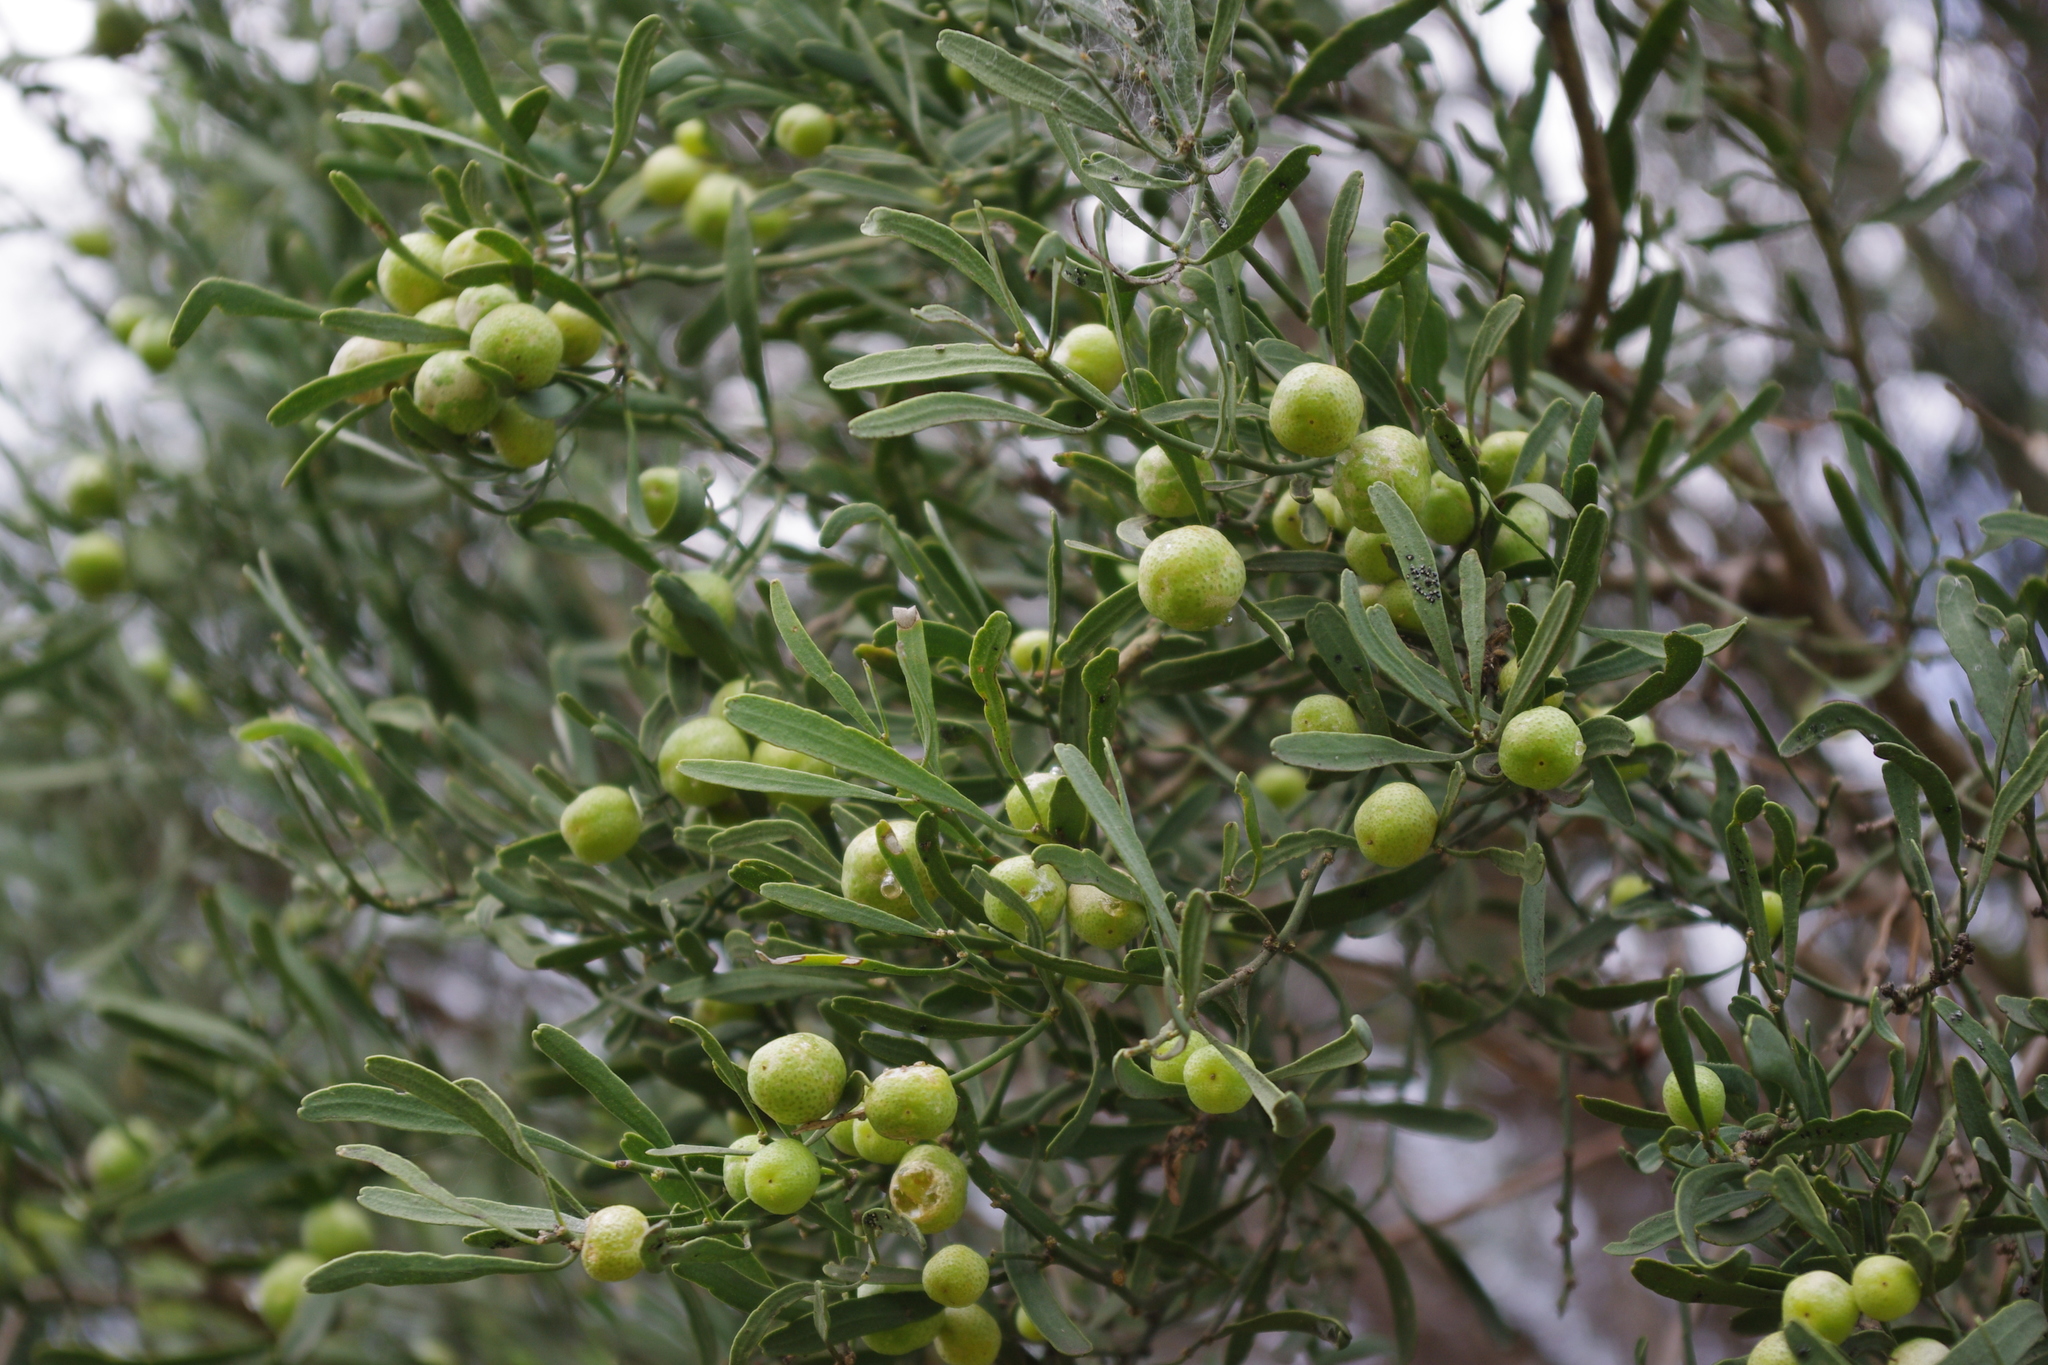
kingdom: Plantae
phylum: Tracheophyta
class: Magnoliopsida
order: Sapindales
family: Rutaceae
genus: Eremocitrus
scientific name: Eremocitrus glauca
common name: Australian desert-lime
